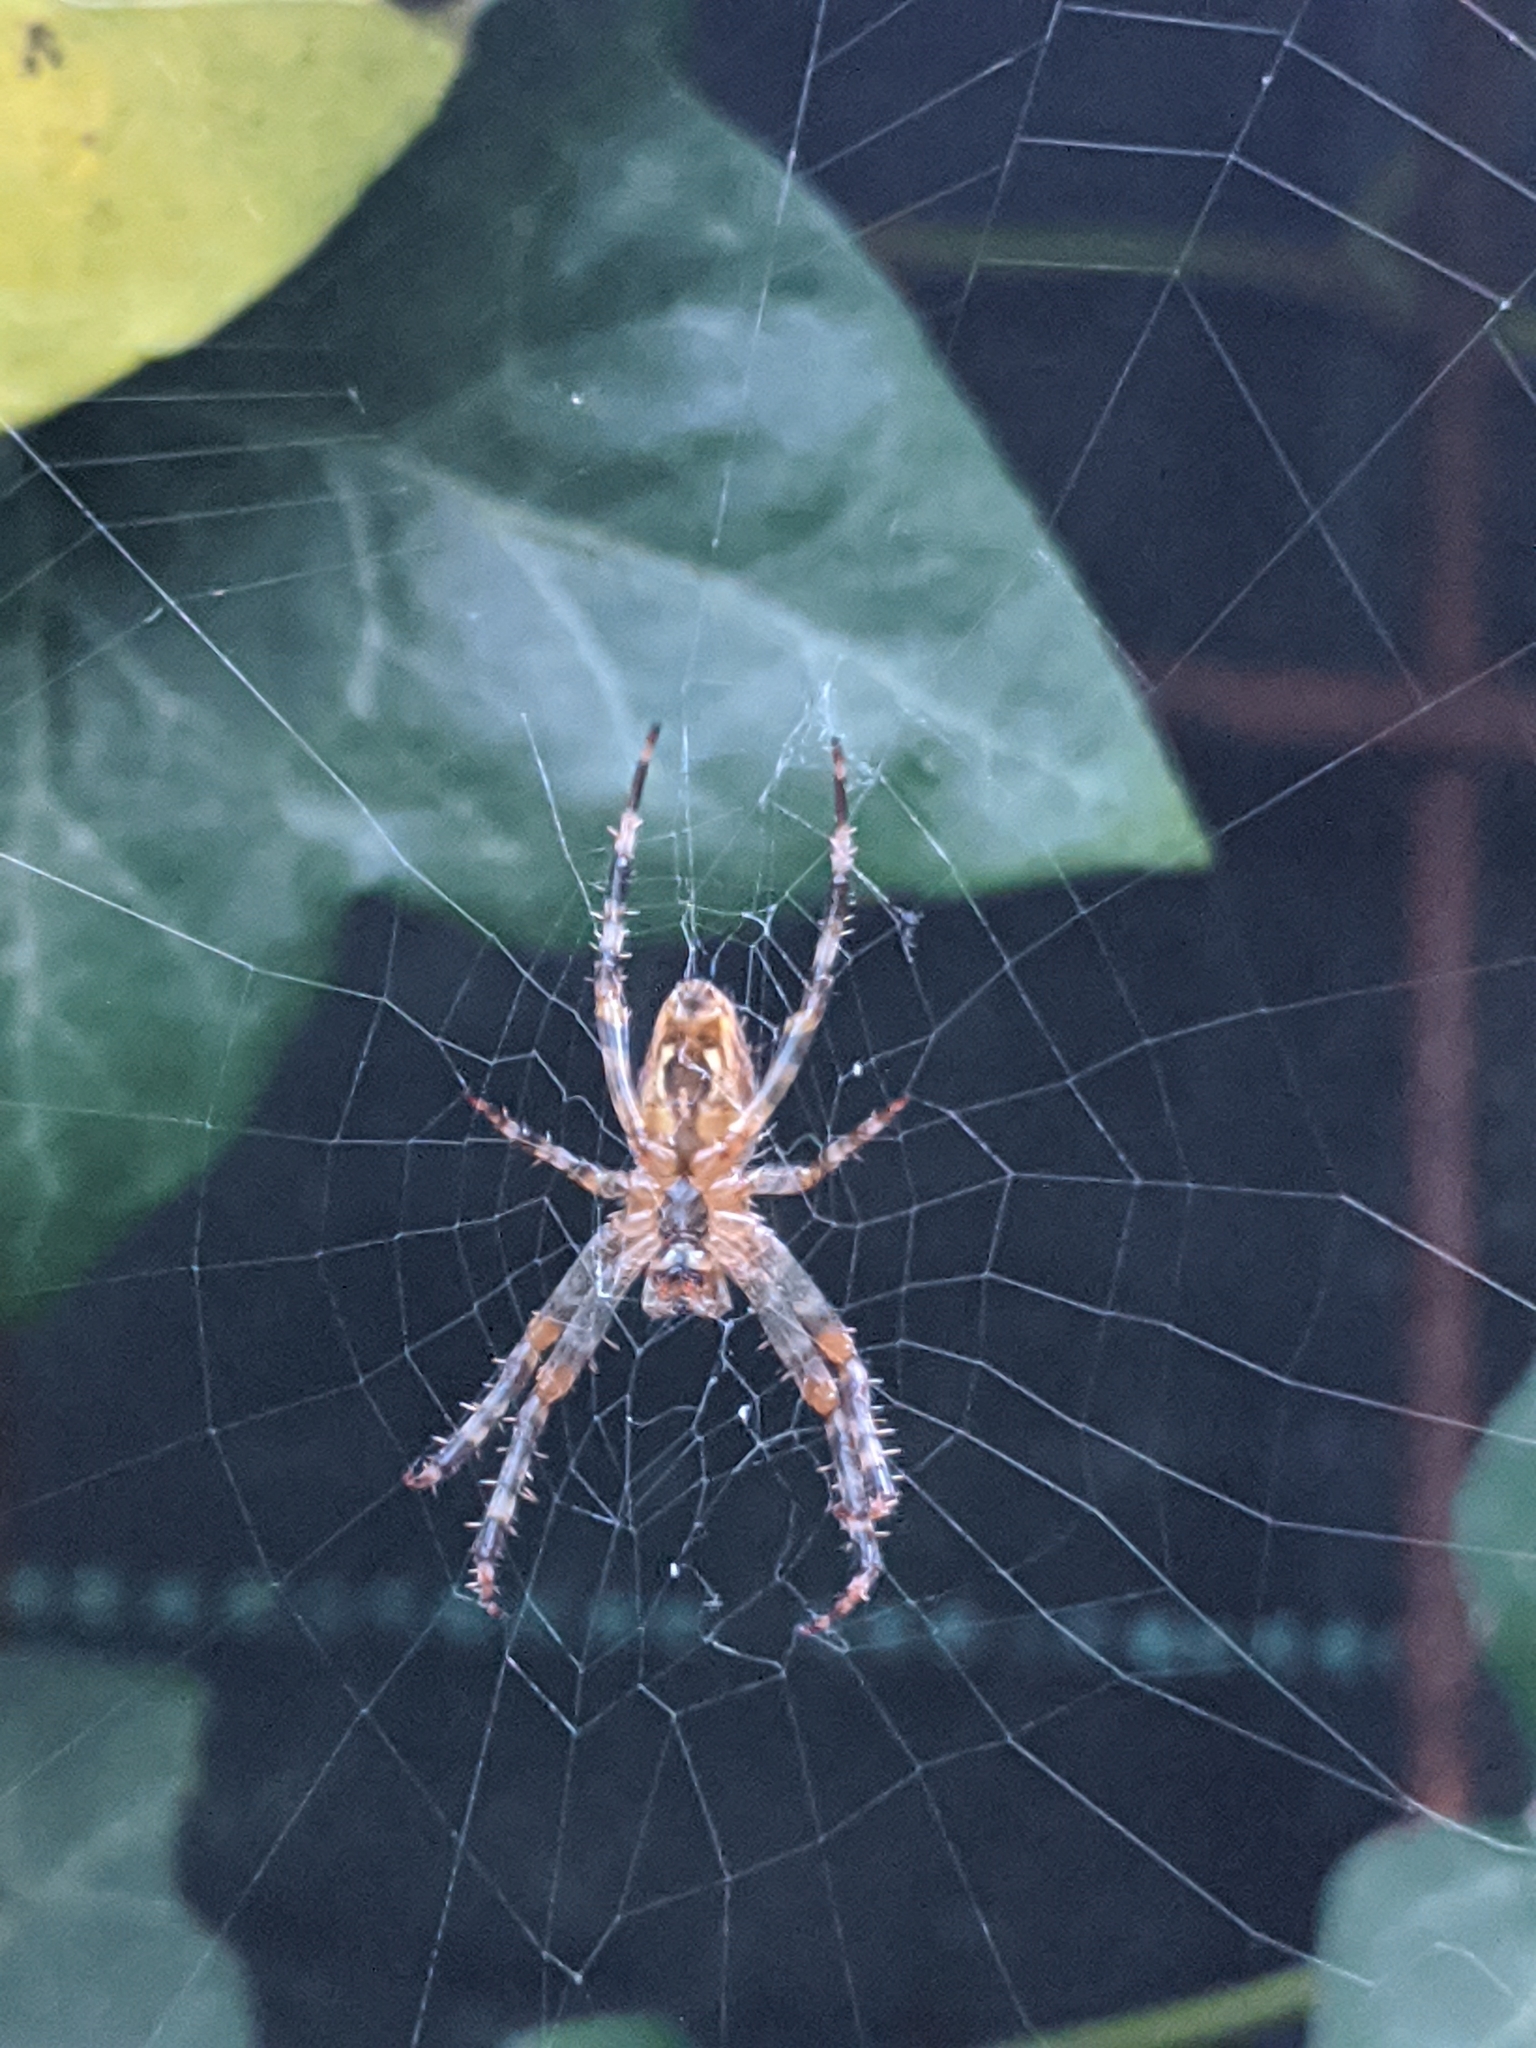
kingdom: Animalia
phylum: Arthropoda
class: Arachnida
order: Araneae
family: Araneidae
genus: Araneus
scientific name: Araneus diadematus
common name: Cross orbweaver
